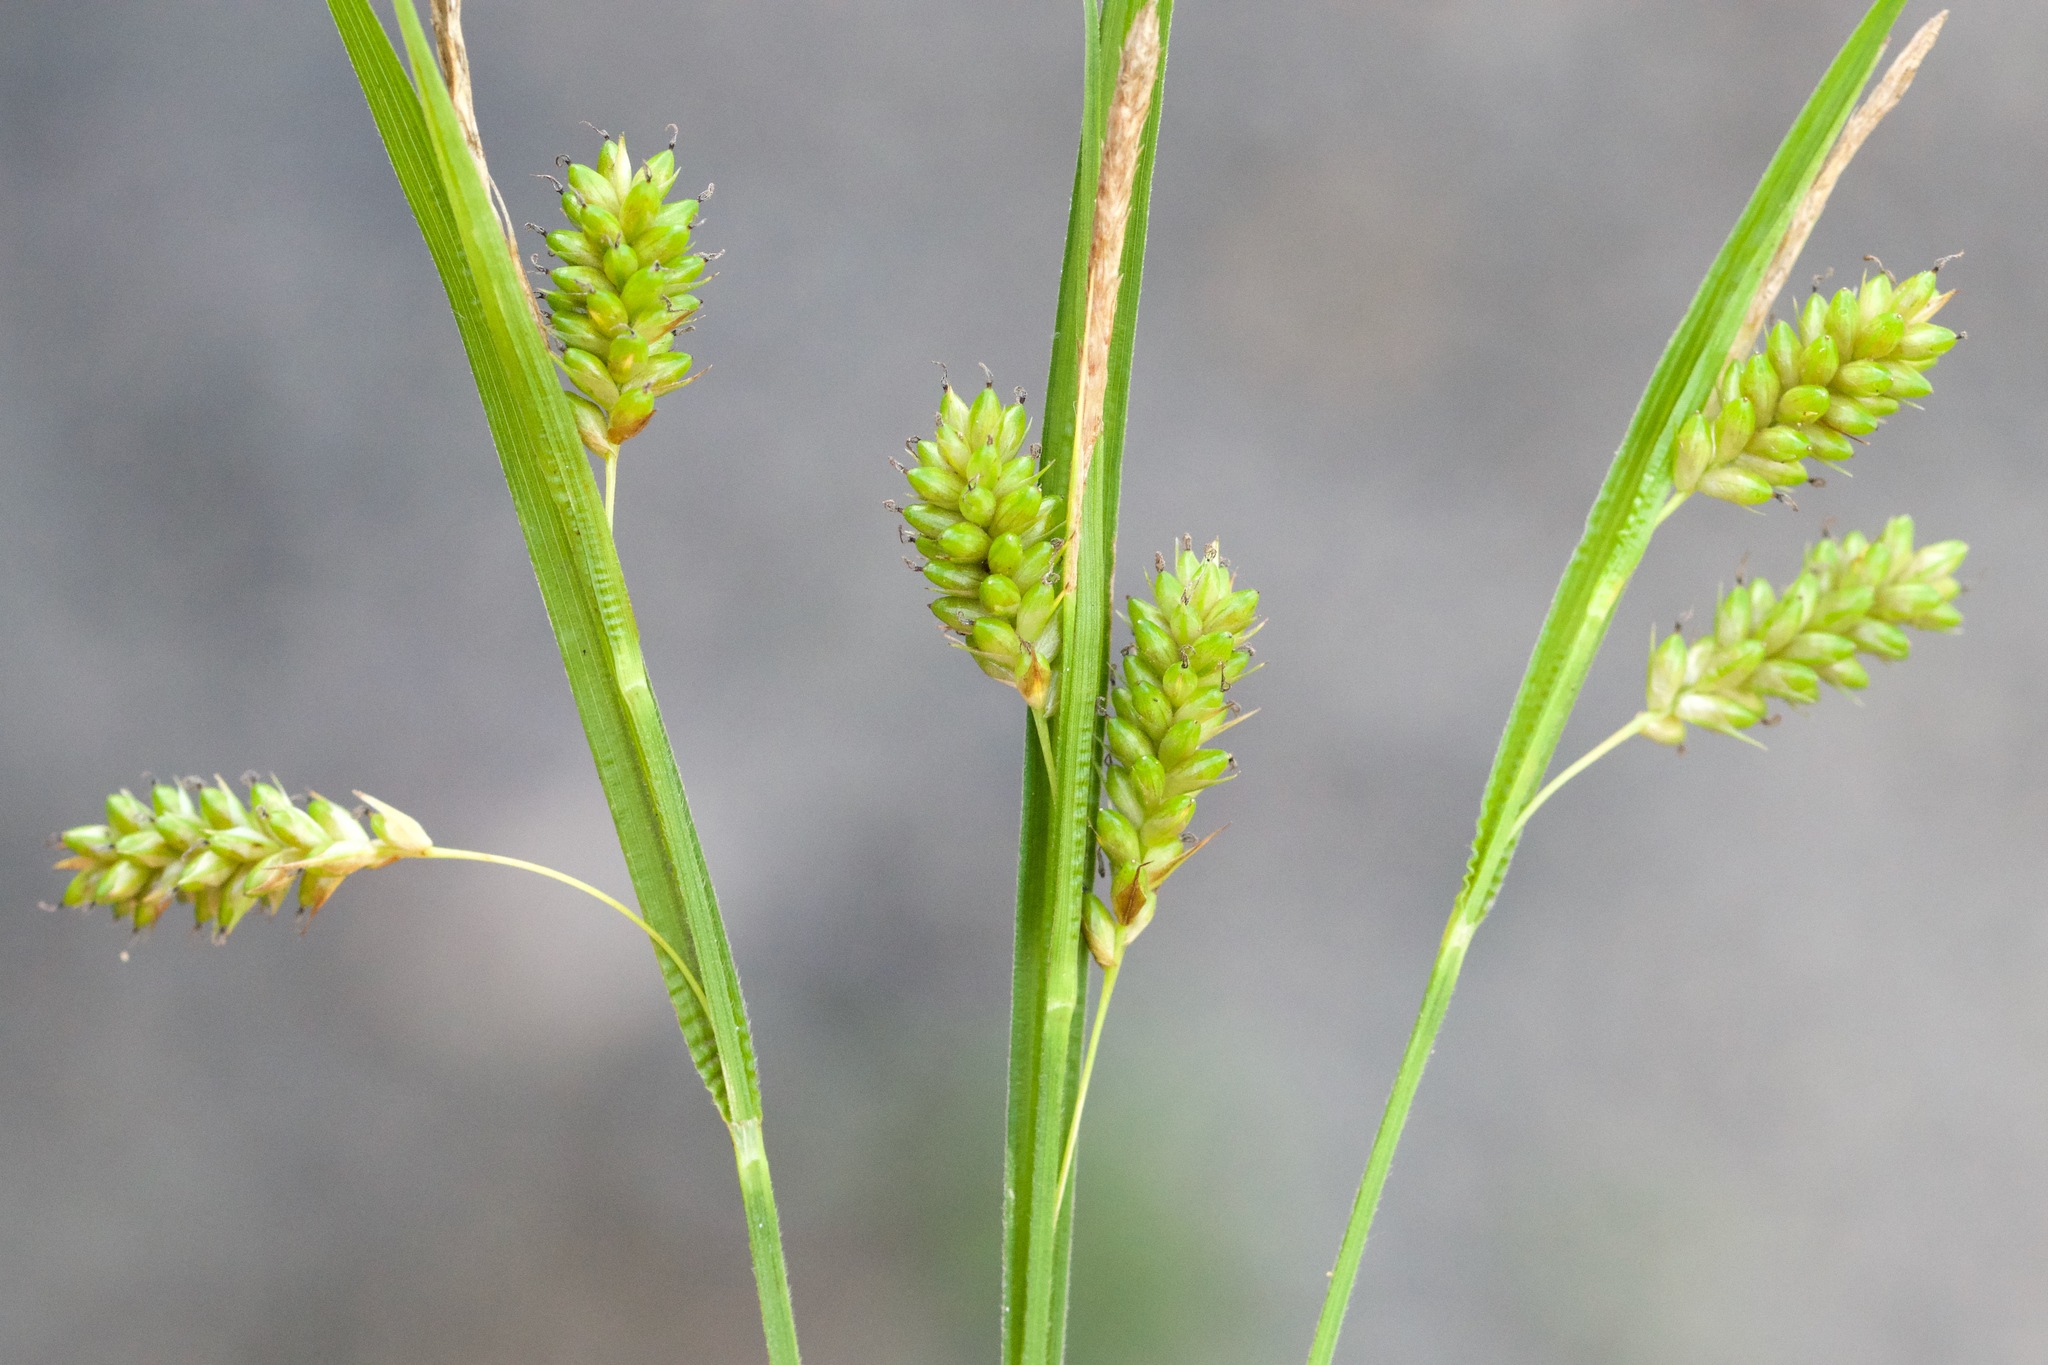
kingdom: Plantae
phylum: Tracheophyta
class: Liliopsida
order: Poales
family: Cyperaceae
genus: Carex
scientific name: Carex pallescens
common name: Pale sedge
